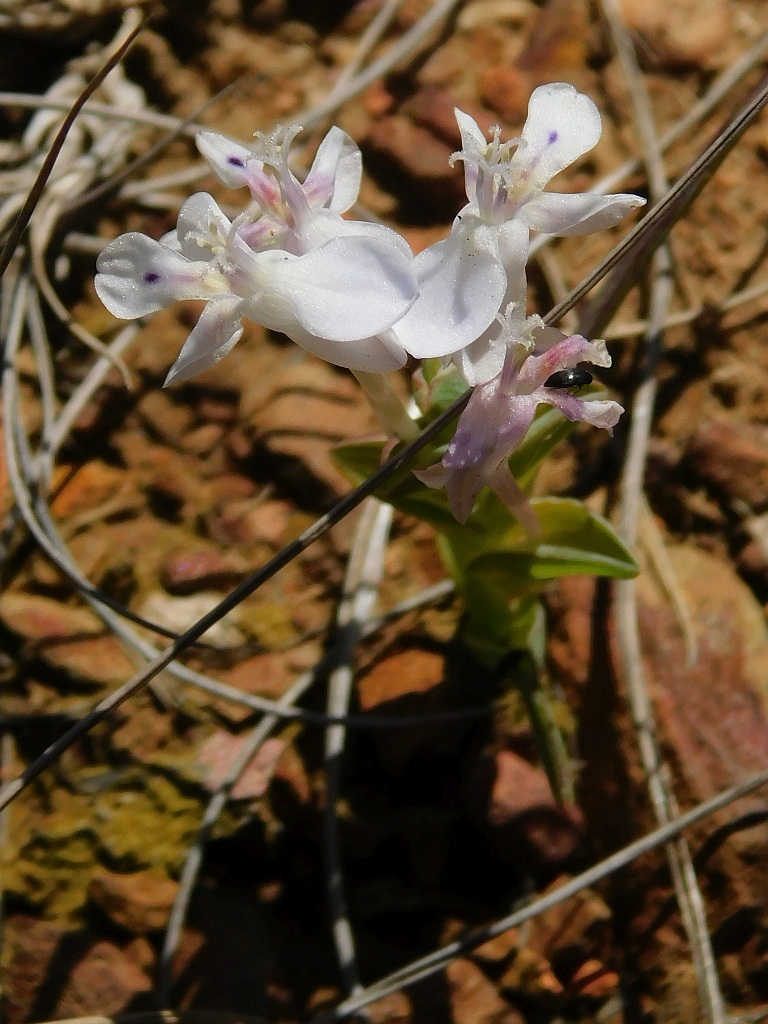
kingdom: Plantae
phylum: Tracheophyta
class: Liliopsida
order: Asparagales
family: Iridaceae
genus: Lapeirousia
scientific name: Lapeirousia pyramidalis
